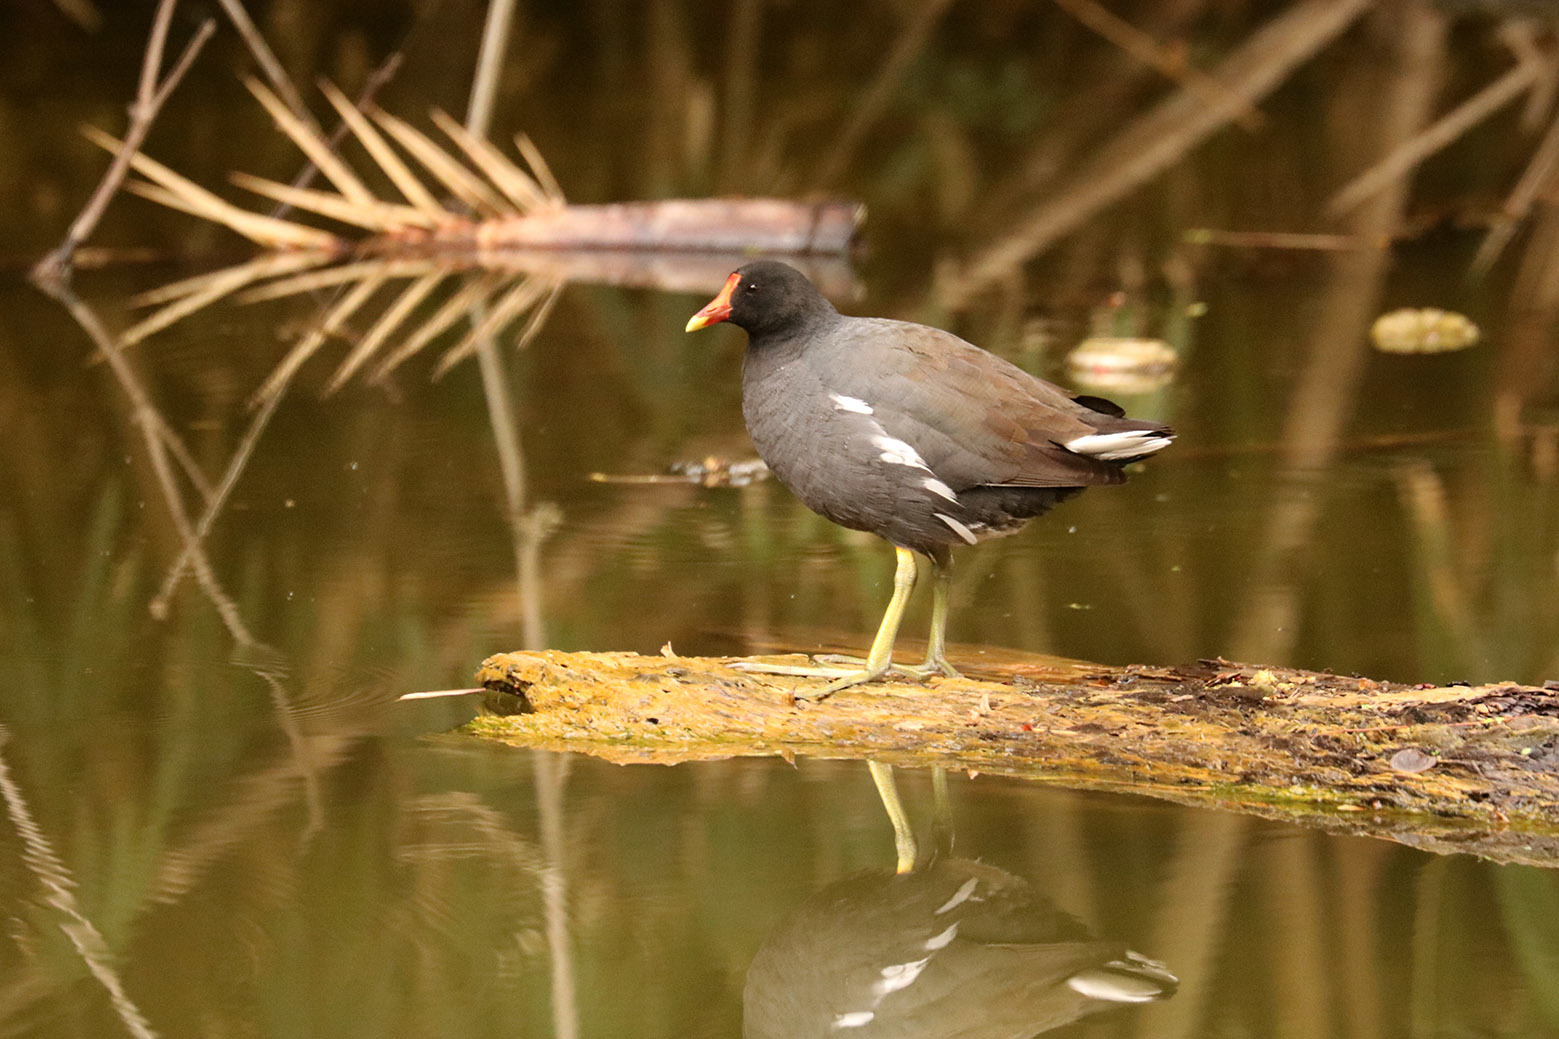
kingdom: Animalia
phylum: Chordata
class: Aves
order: Gruiformes
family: Rallidae
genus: Gallinula
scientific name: Gallinula chloropus
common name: Common moorhen
